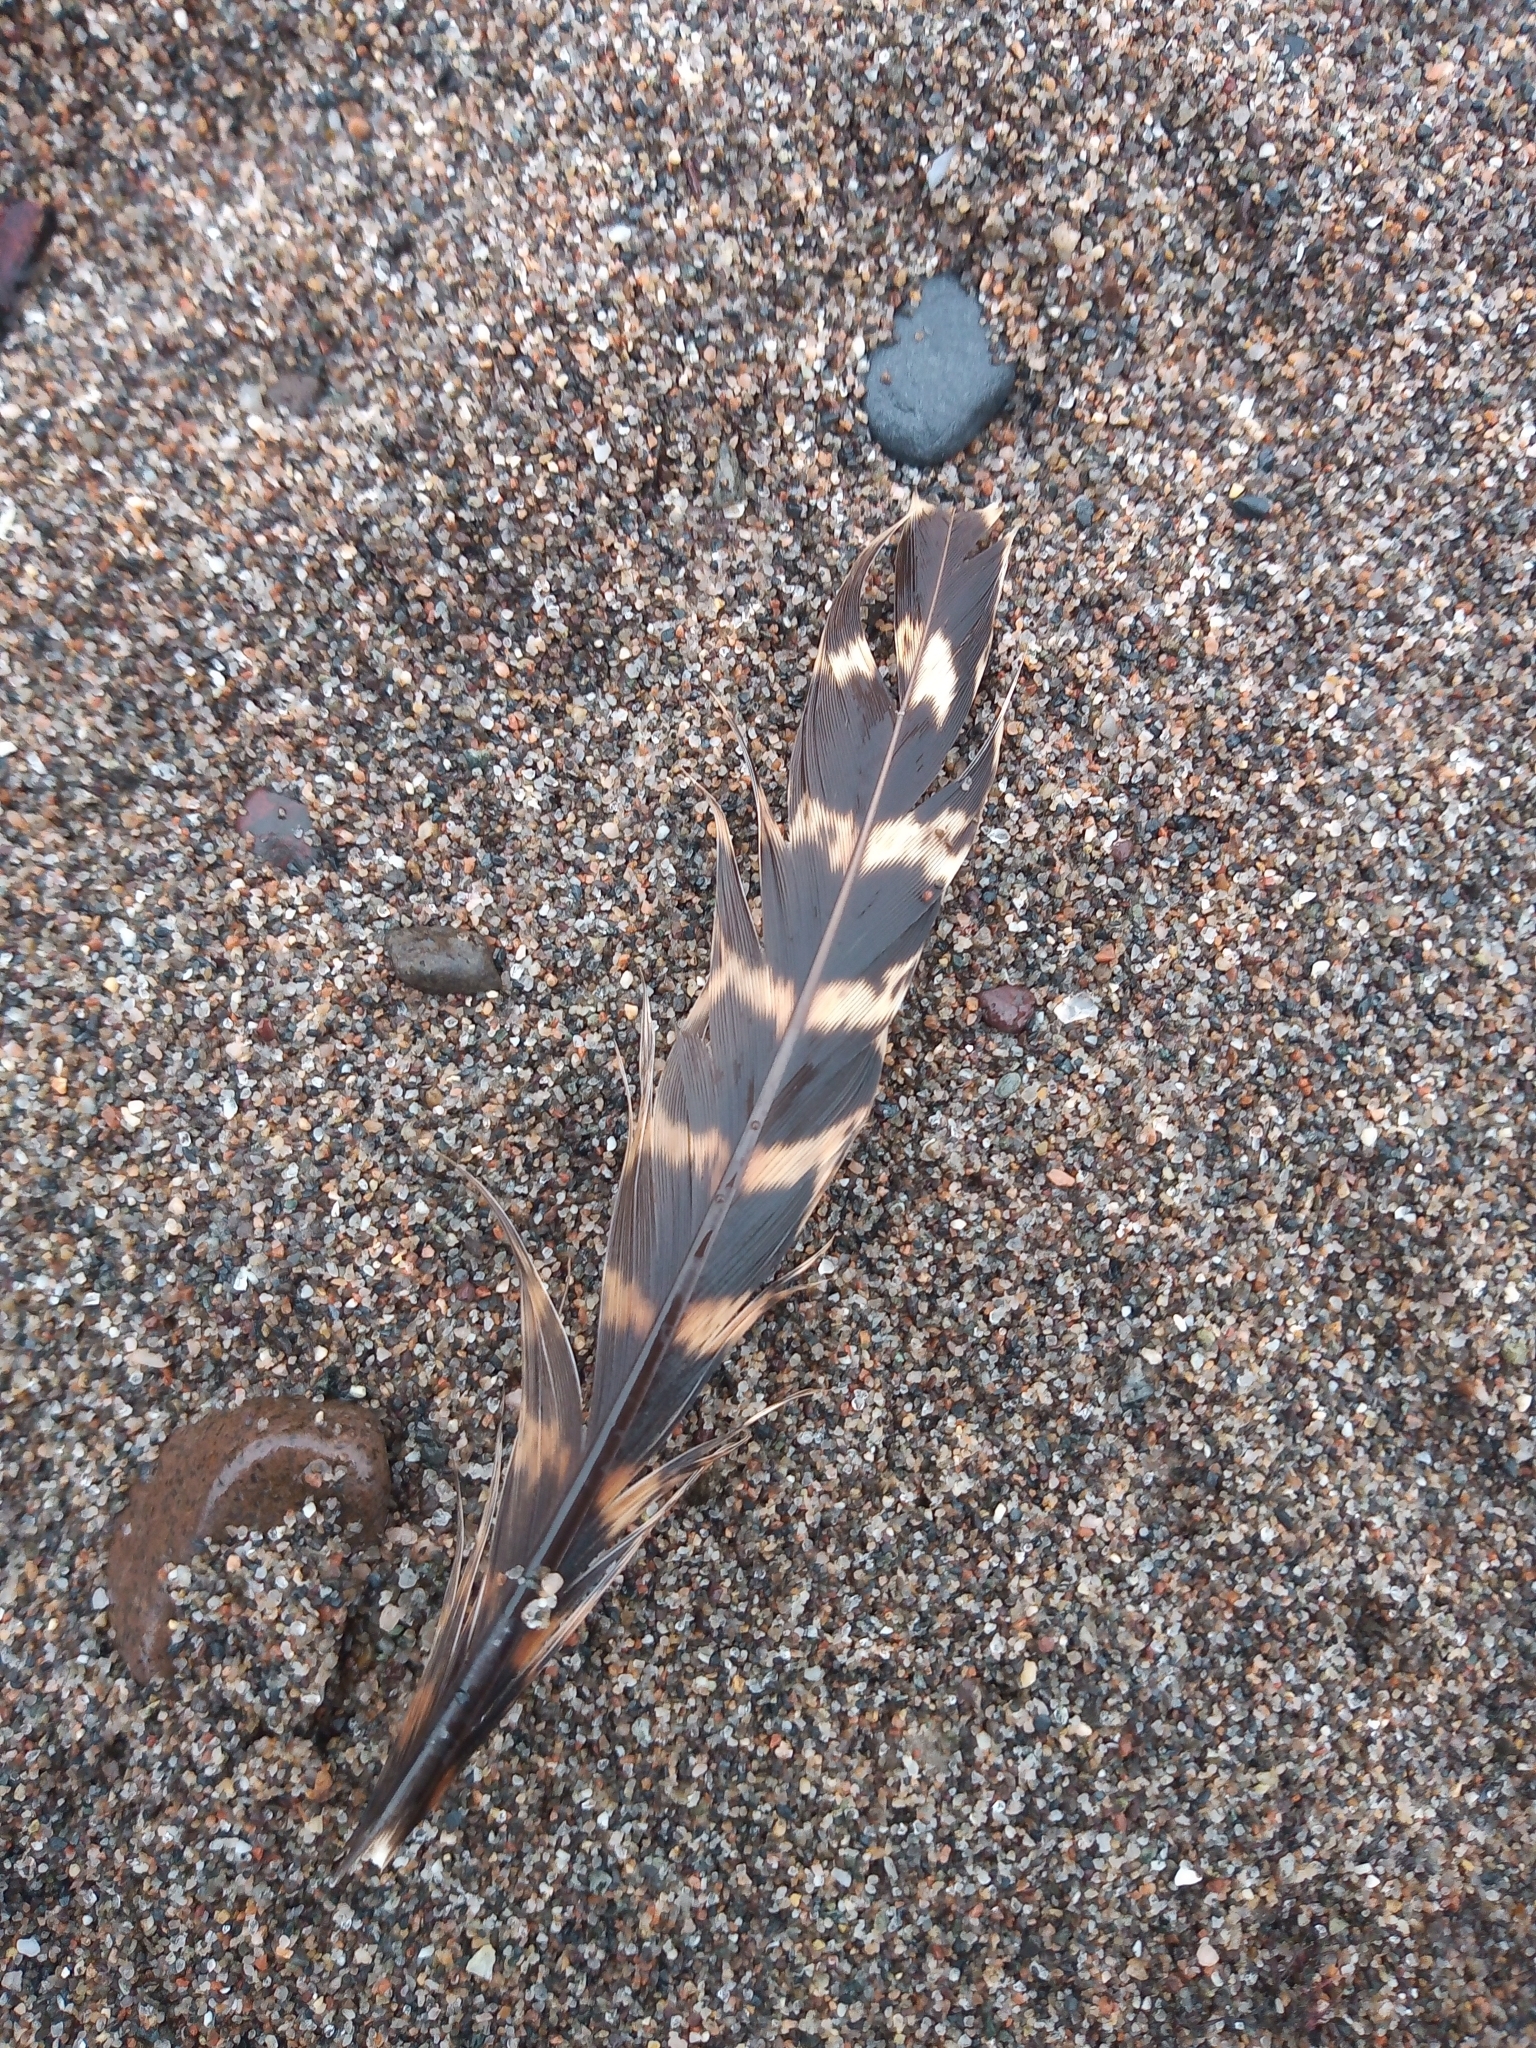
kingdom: Animalia
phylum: Chordata
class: Aves
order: Galliformes
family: Phasianidae
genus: Phasianus
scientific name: Phasianus colchicus
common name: Common pheasant
